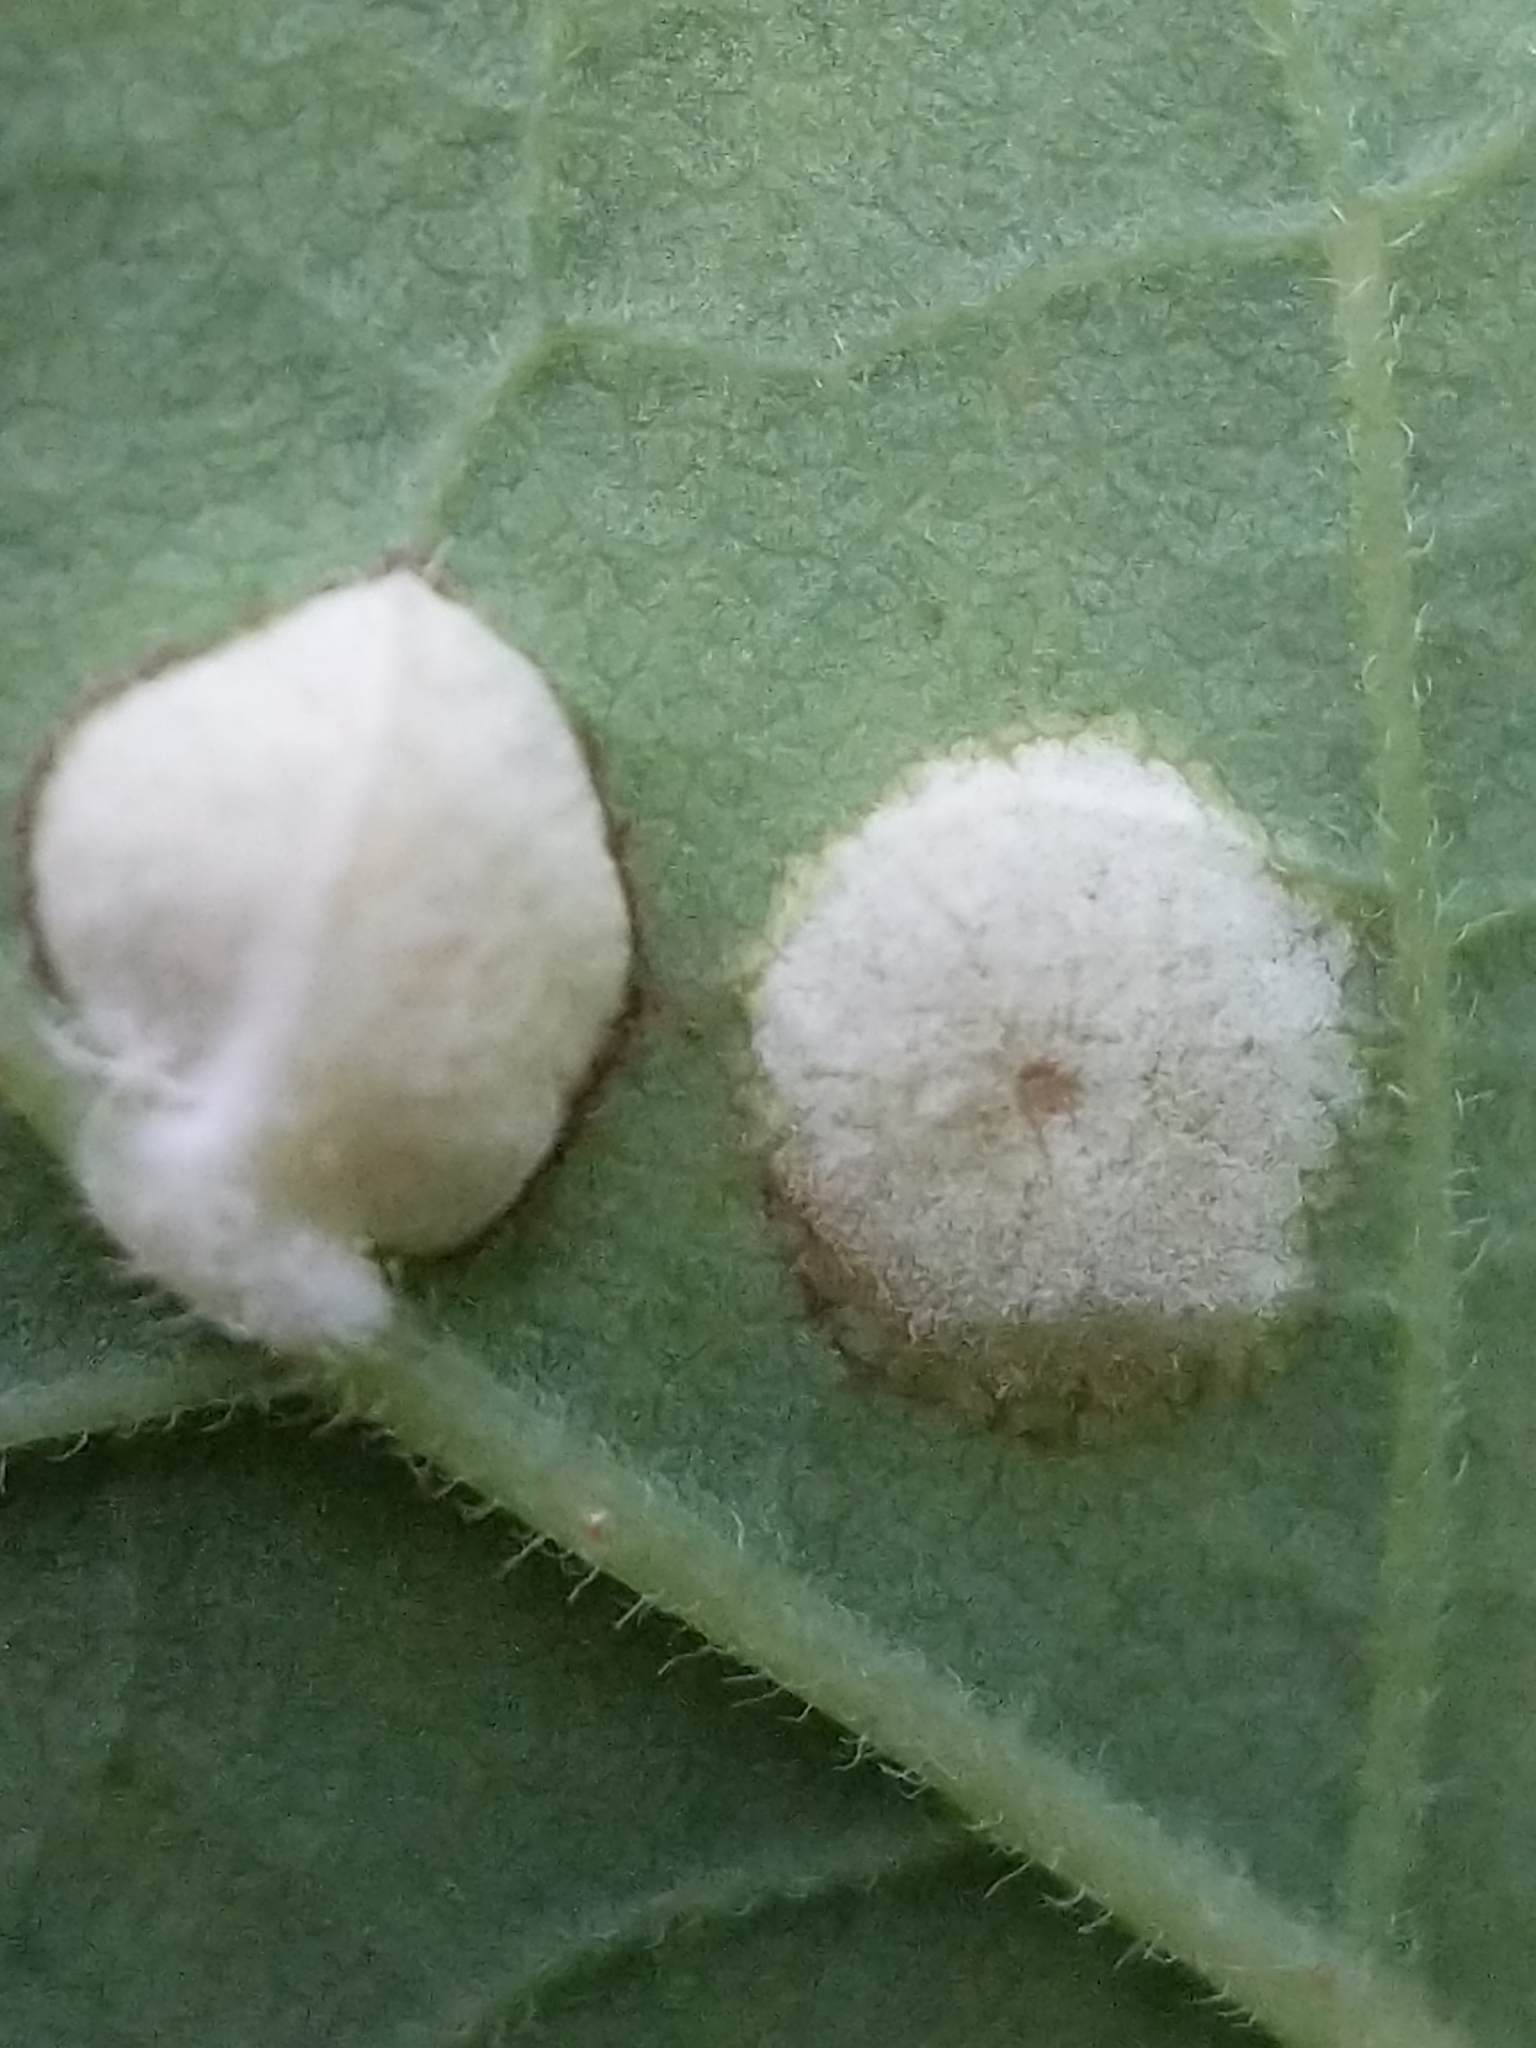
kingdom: Fungi
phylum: Basidiomycota
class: Exobasidiomycetes
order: Exobasidiales
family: Exobasidiaceae
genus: Exobasidium
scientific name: Exobasidium vaccinii
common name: Cowberry redleaf
